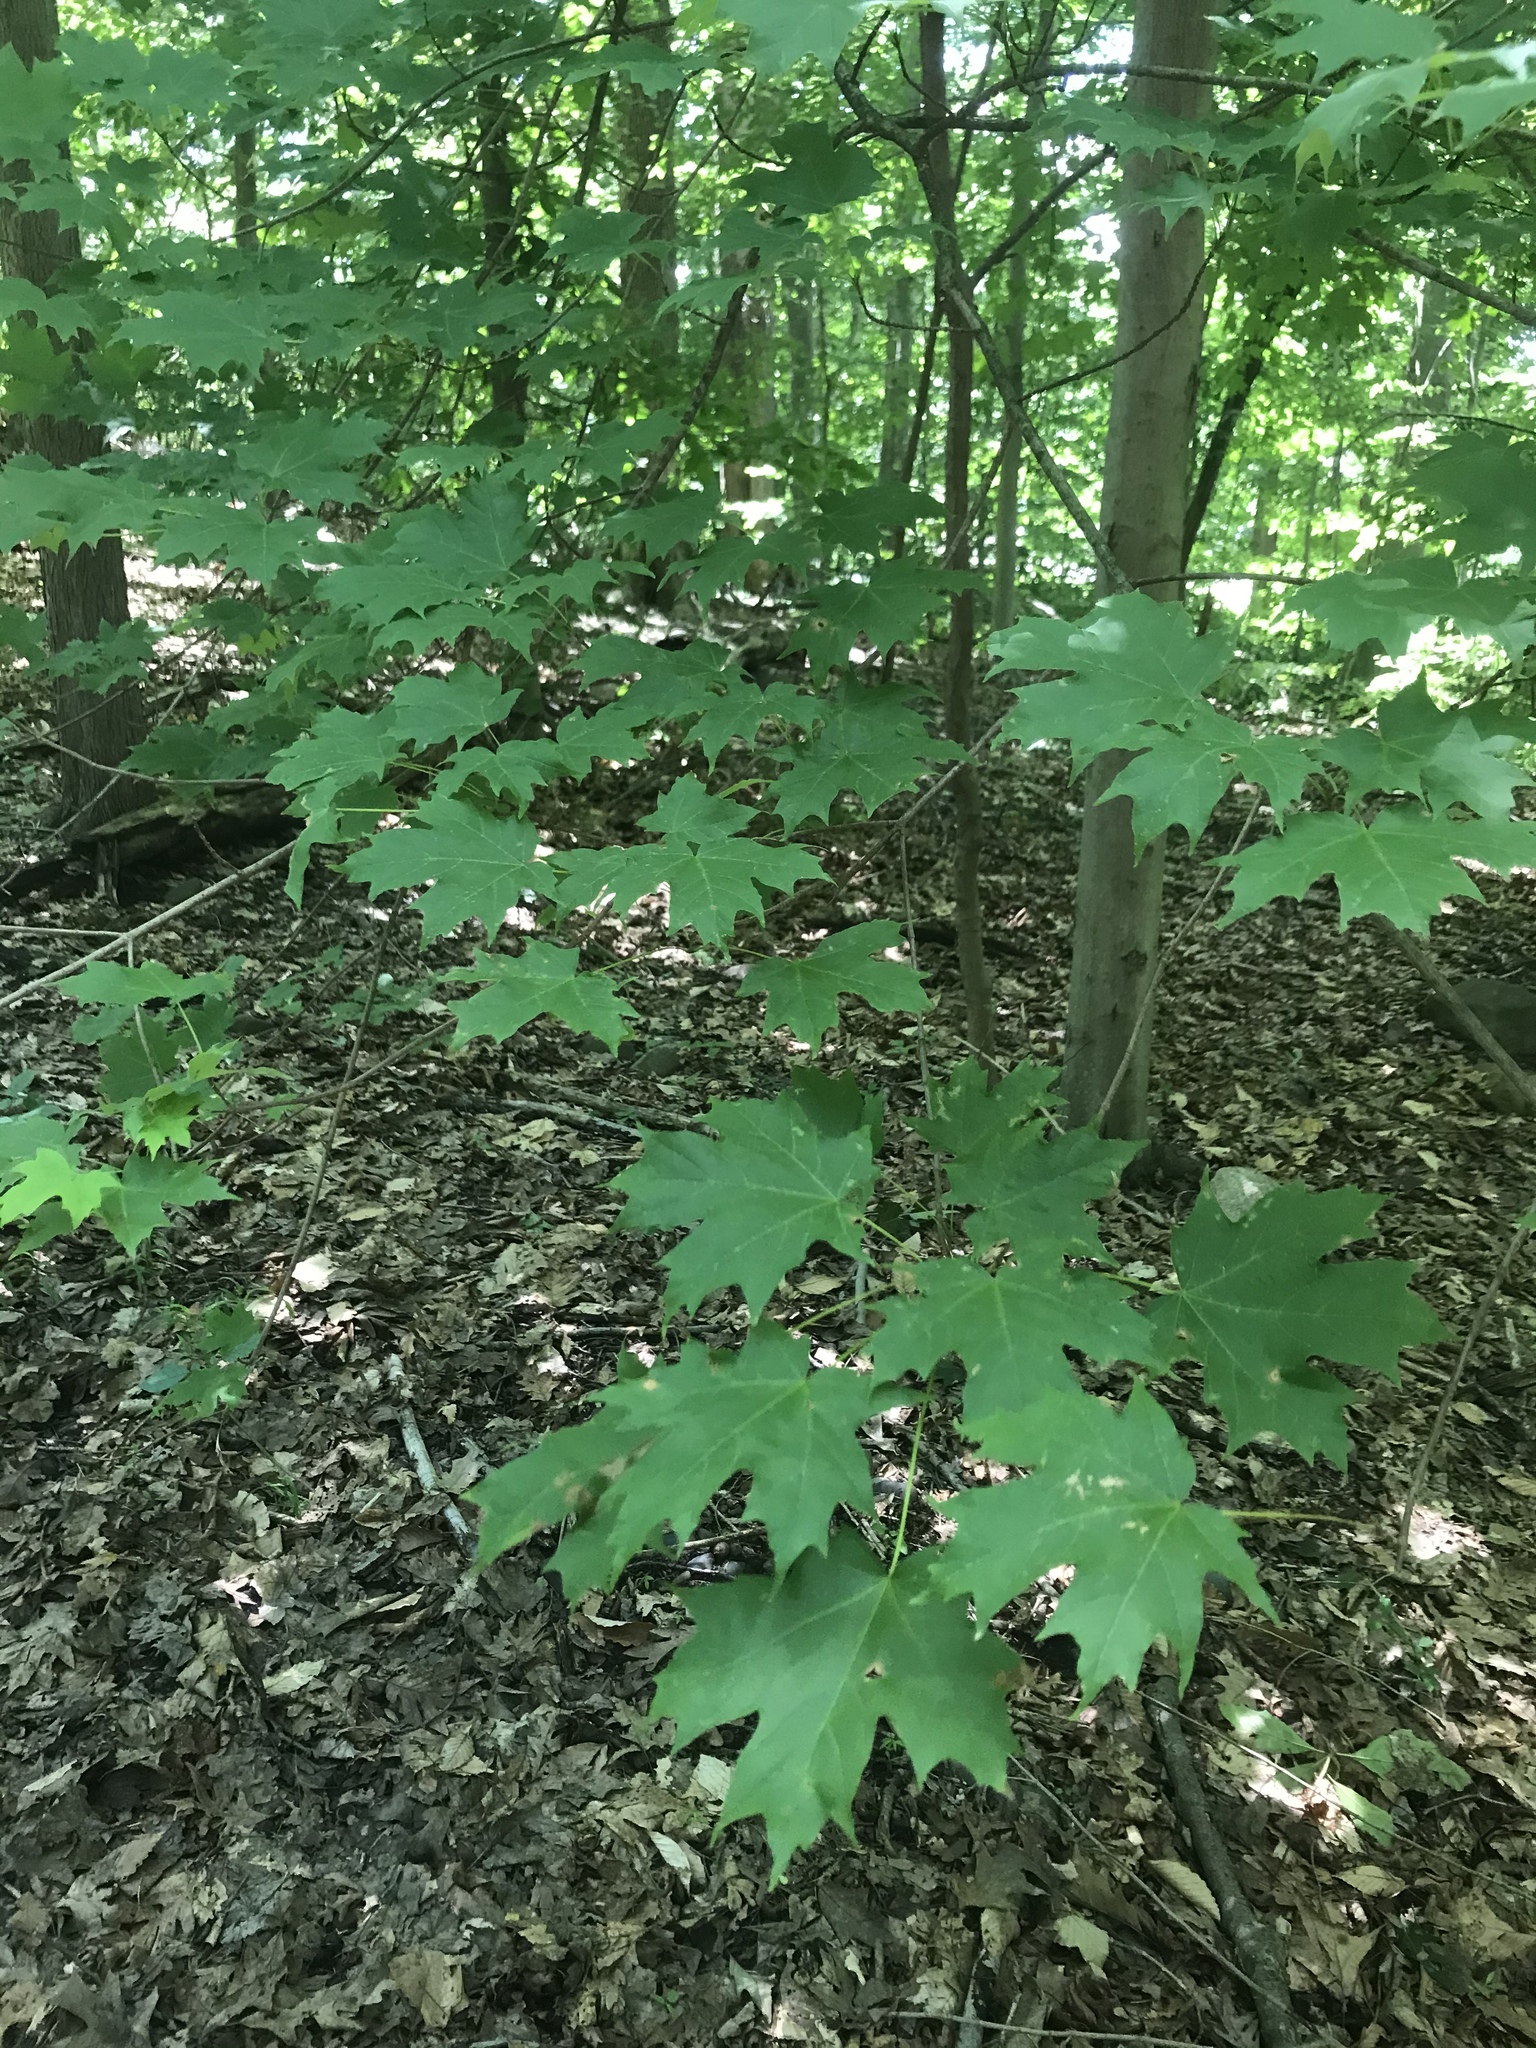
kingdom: Plantae
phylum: Tracheophyta
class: Magnoliopsida
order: Sapindales
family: Sapindaceae
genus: Acer
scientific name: Acer saccharum
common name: Sugar maple
